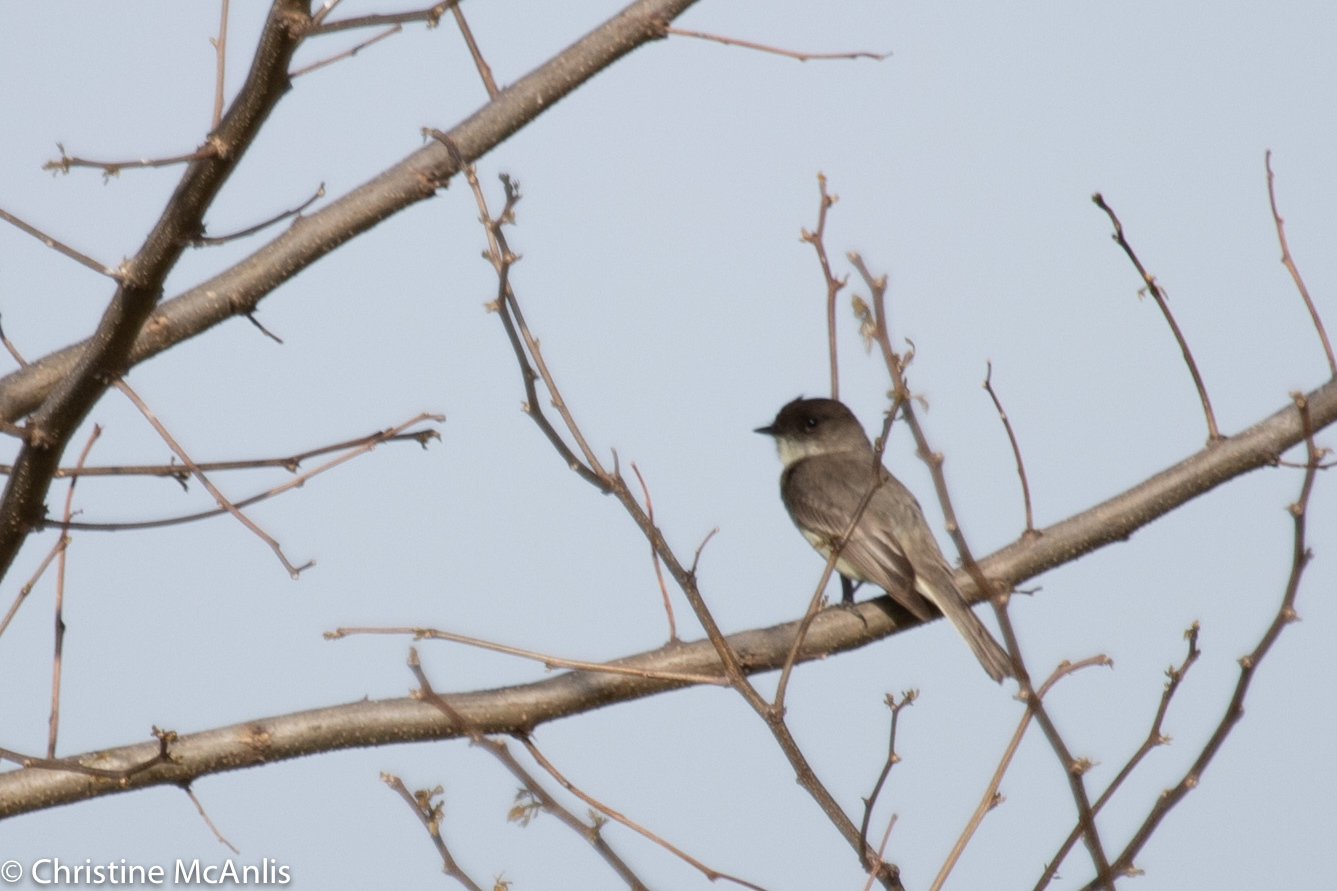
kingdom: Animalia
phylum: Chordata
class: Aves
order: Passeriformes
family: Tyrannidae
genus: Sayornis
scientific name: Sayornis phoebe
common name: Eastern phoebe
